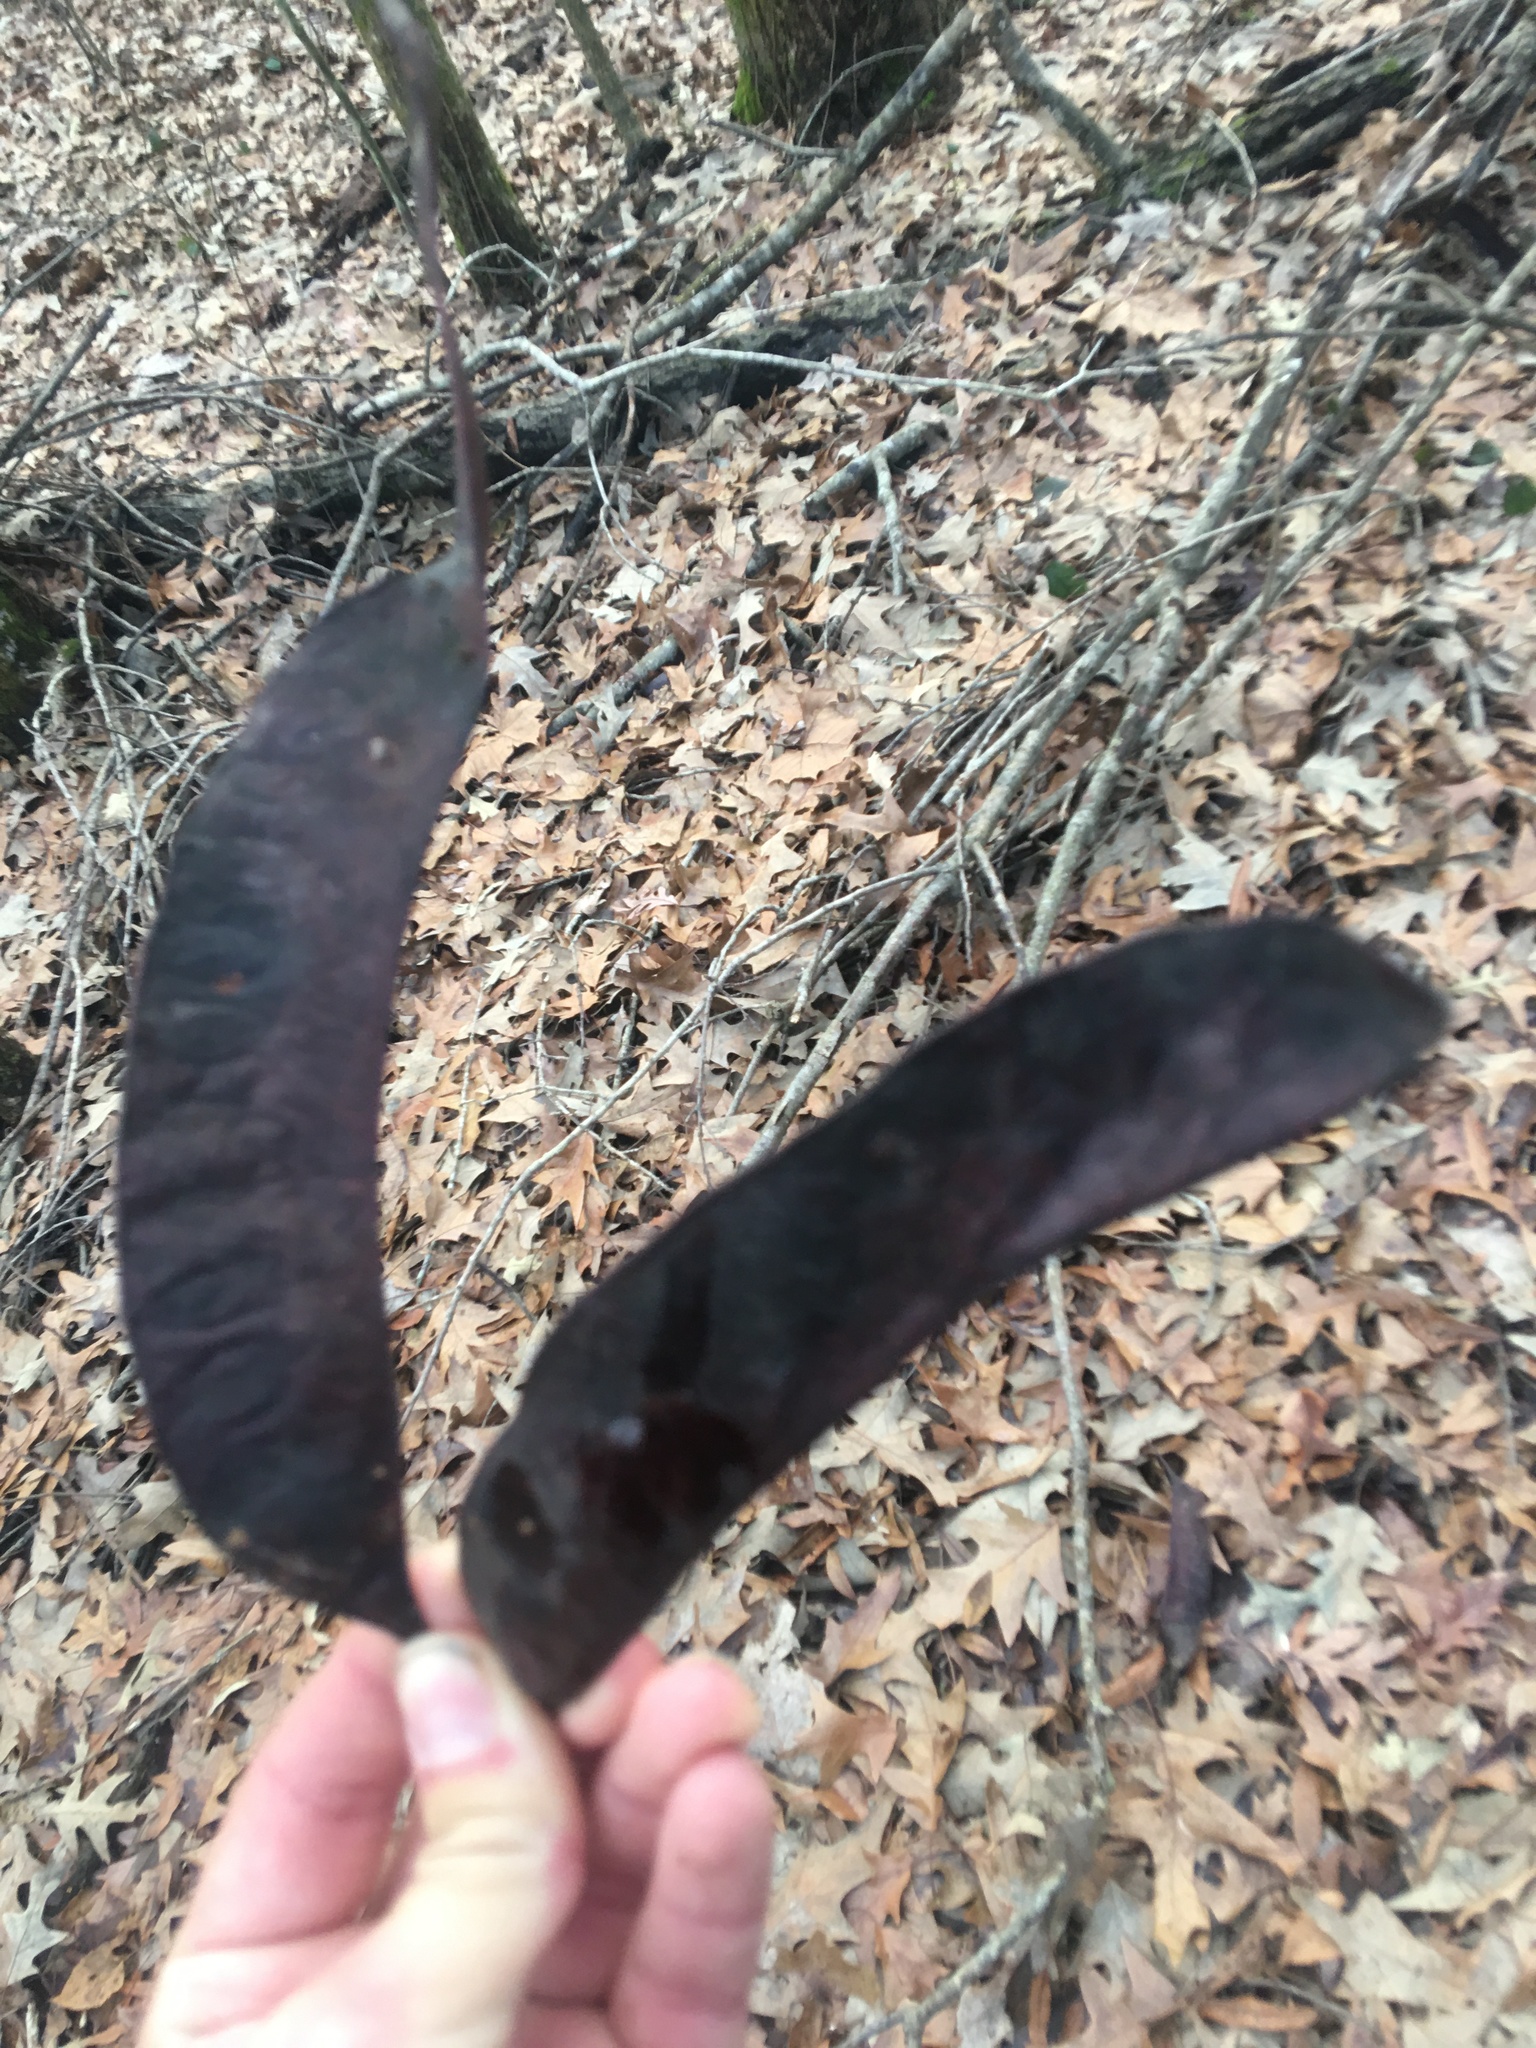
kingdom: Plantae
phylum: Tracheophyta
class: Magnoliopsida
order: Fabales
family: Fabaceae
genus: Gleditsia
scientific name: Gleditsia triacanthos
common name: Common honeylocust
